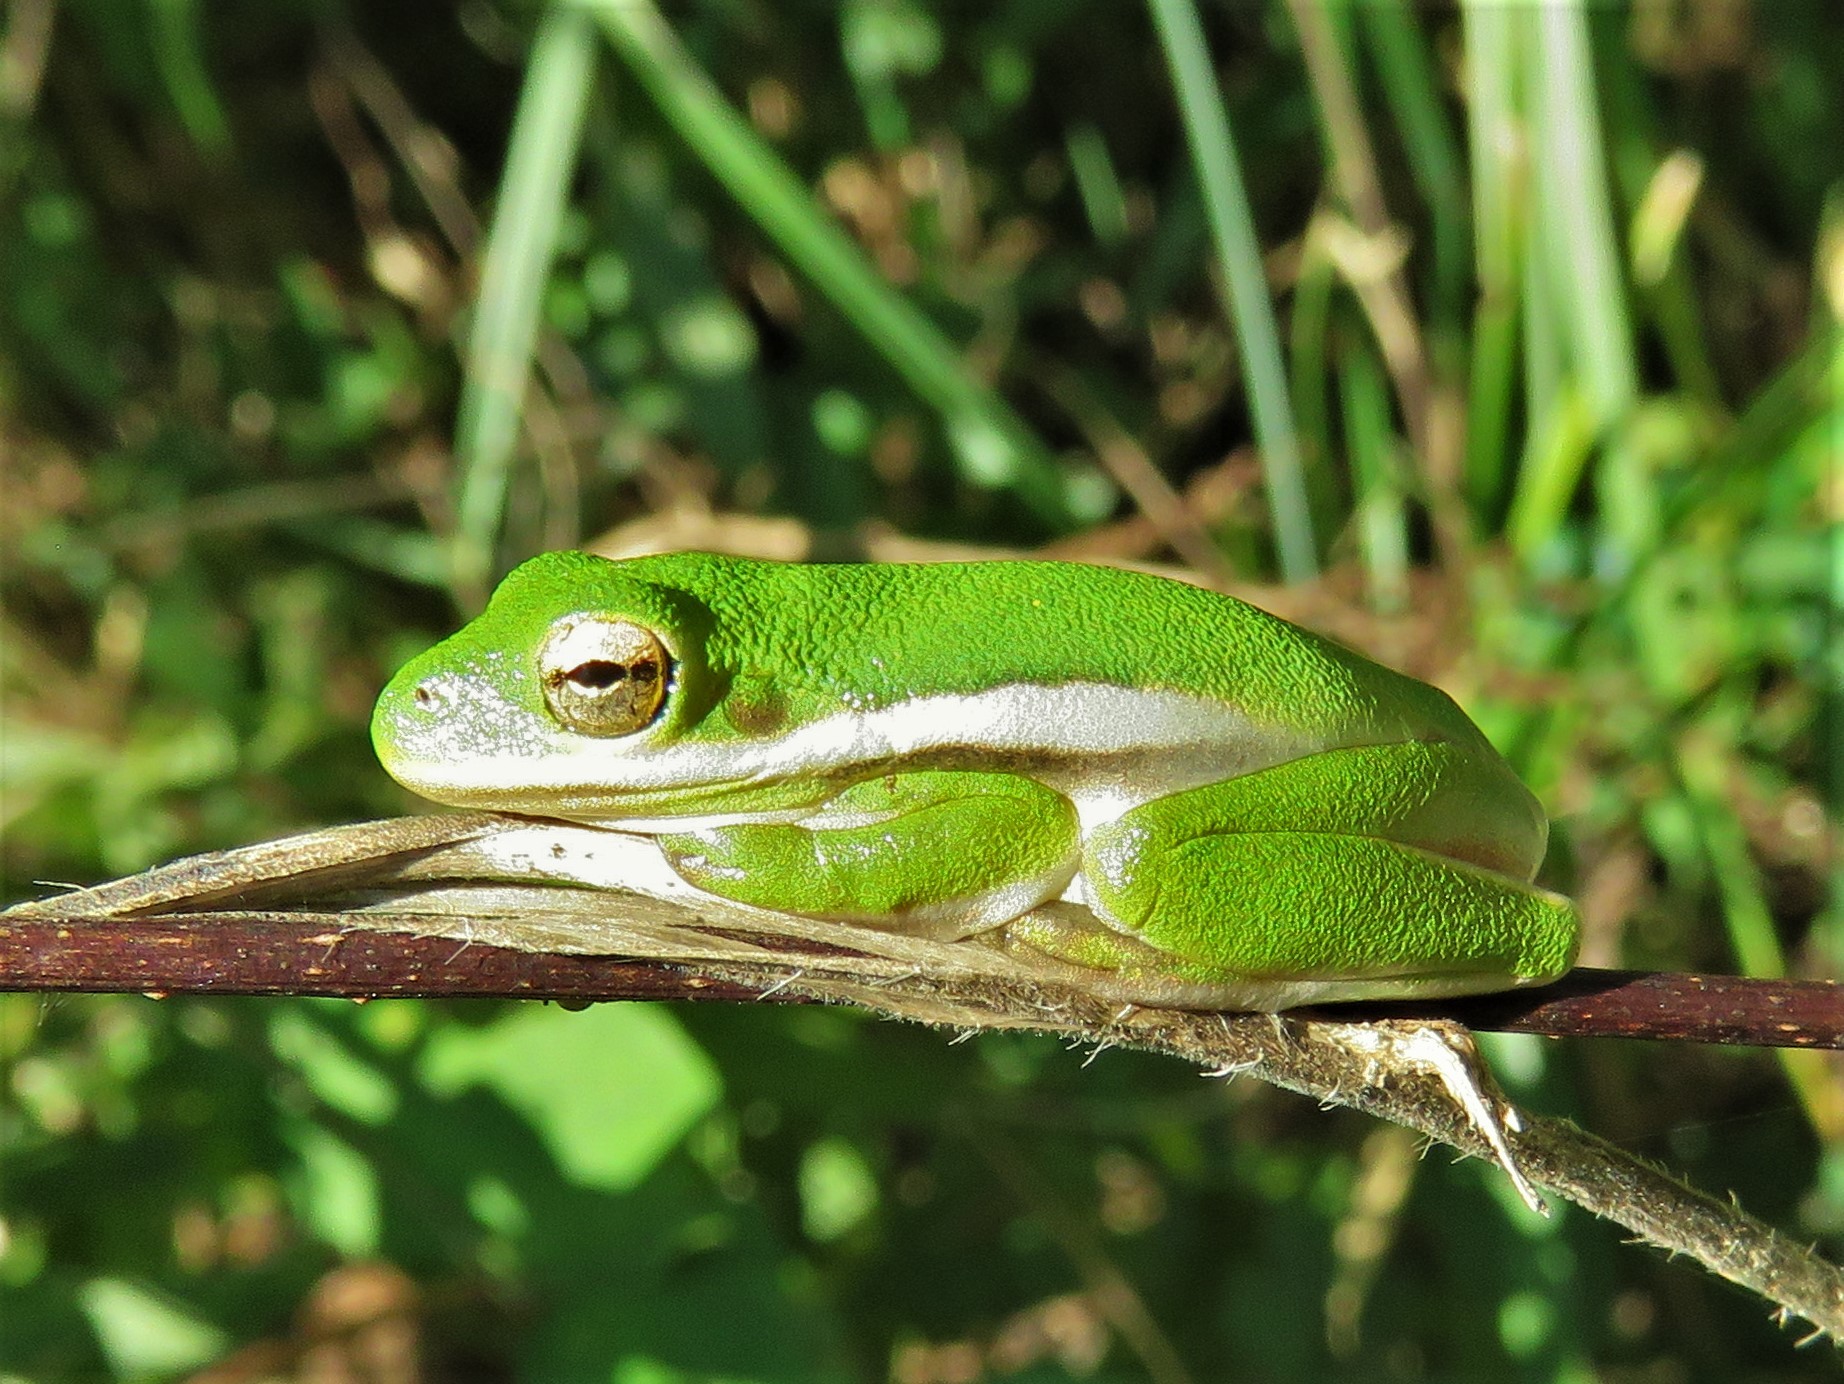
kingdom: Animalia
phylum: Chordata
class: Amphibia
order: Anura
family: Hylidae
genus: Dryophytes
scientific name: Dryophytes cinereus
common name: Green treefrog
